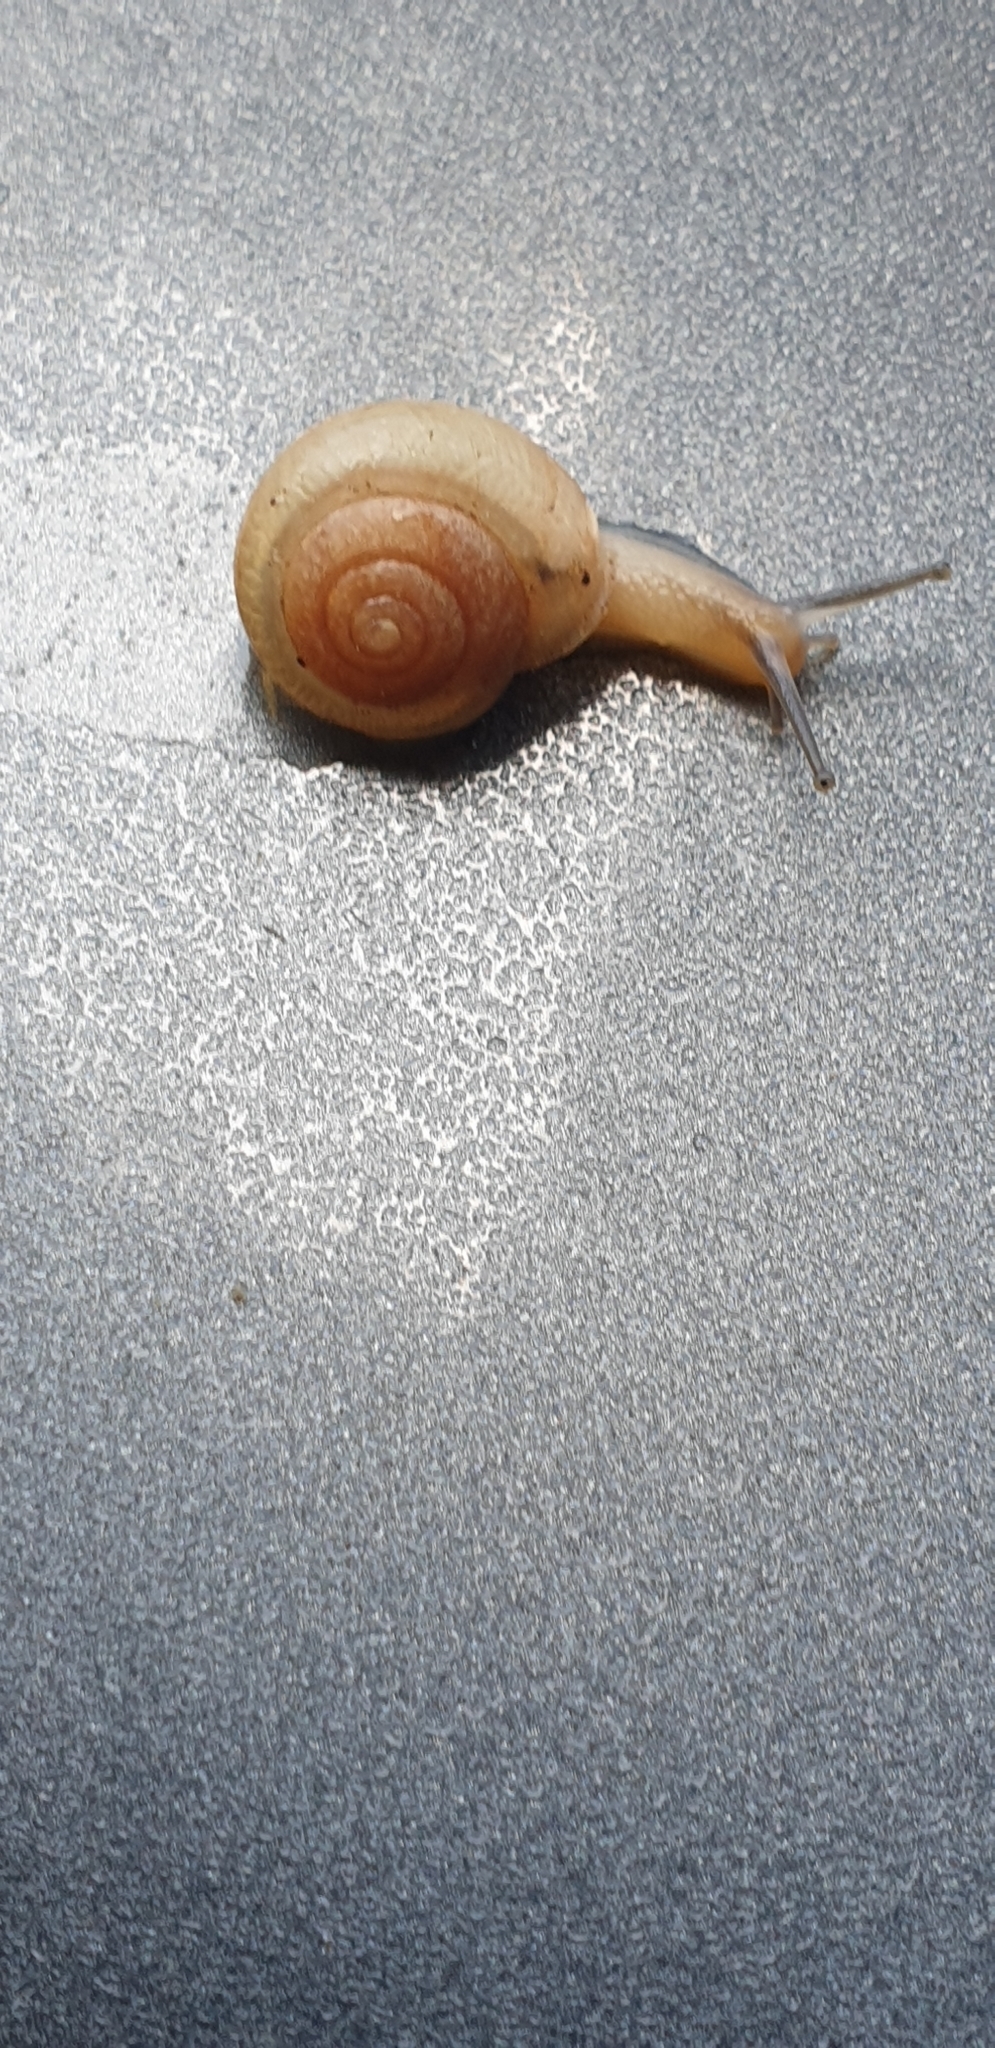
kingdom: Animalia
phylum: Mollusca
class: Gastropoda
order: Stylommatophora
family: Camaenidae
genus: Bradybaena
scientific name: Bradybaena similaris
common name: Asian trampsnail
